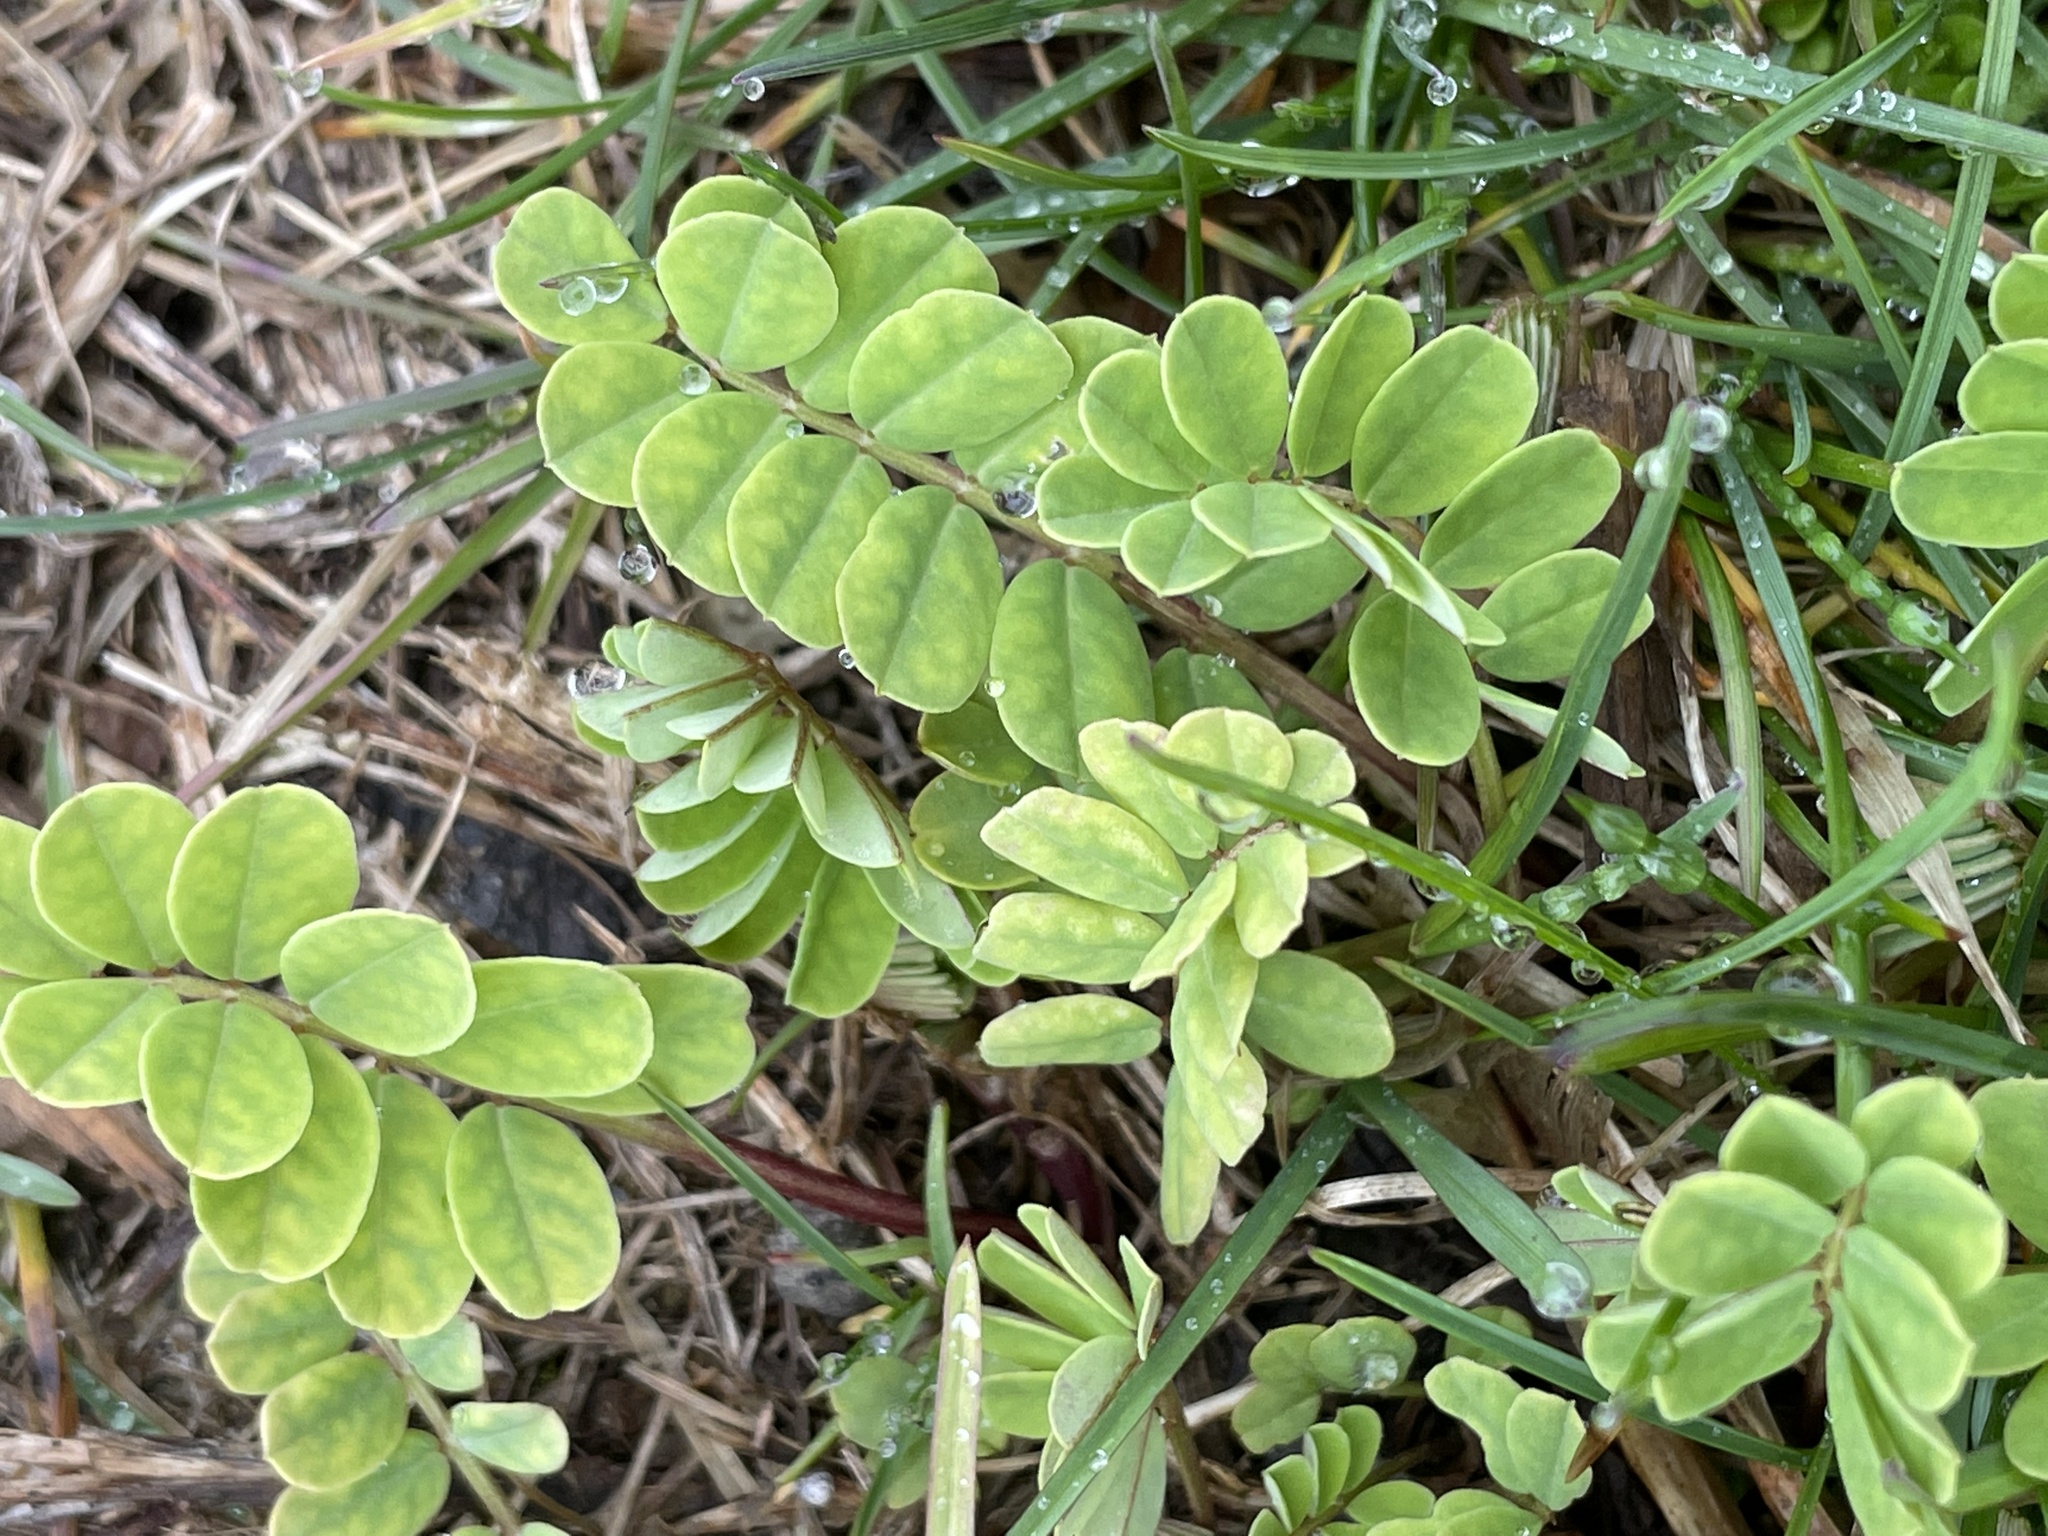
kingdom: Plantae
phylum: Tracheophyta
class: Magnoliopsida
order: Fabales
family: Fabaceae
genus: Coronilla
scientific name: Coronilla varia
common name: Crownvetch
